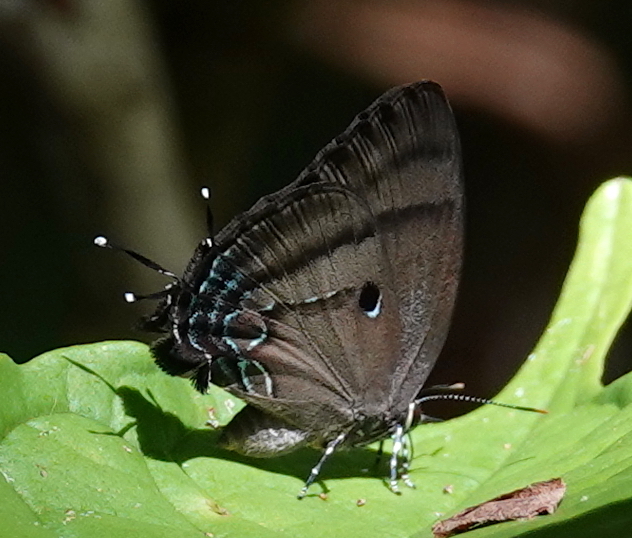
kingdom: Animalia
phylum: Arthropoda
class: Insecta
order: Lepidoptera
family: Lycaenidae
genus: Denivia
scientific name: Denivia hemon
